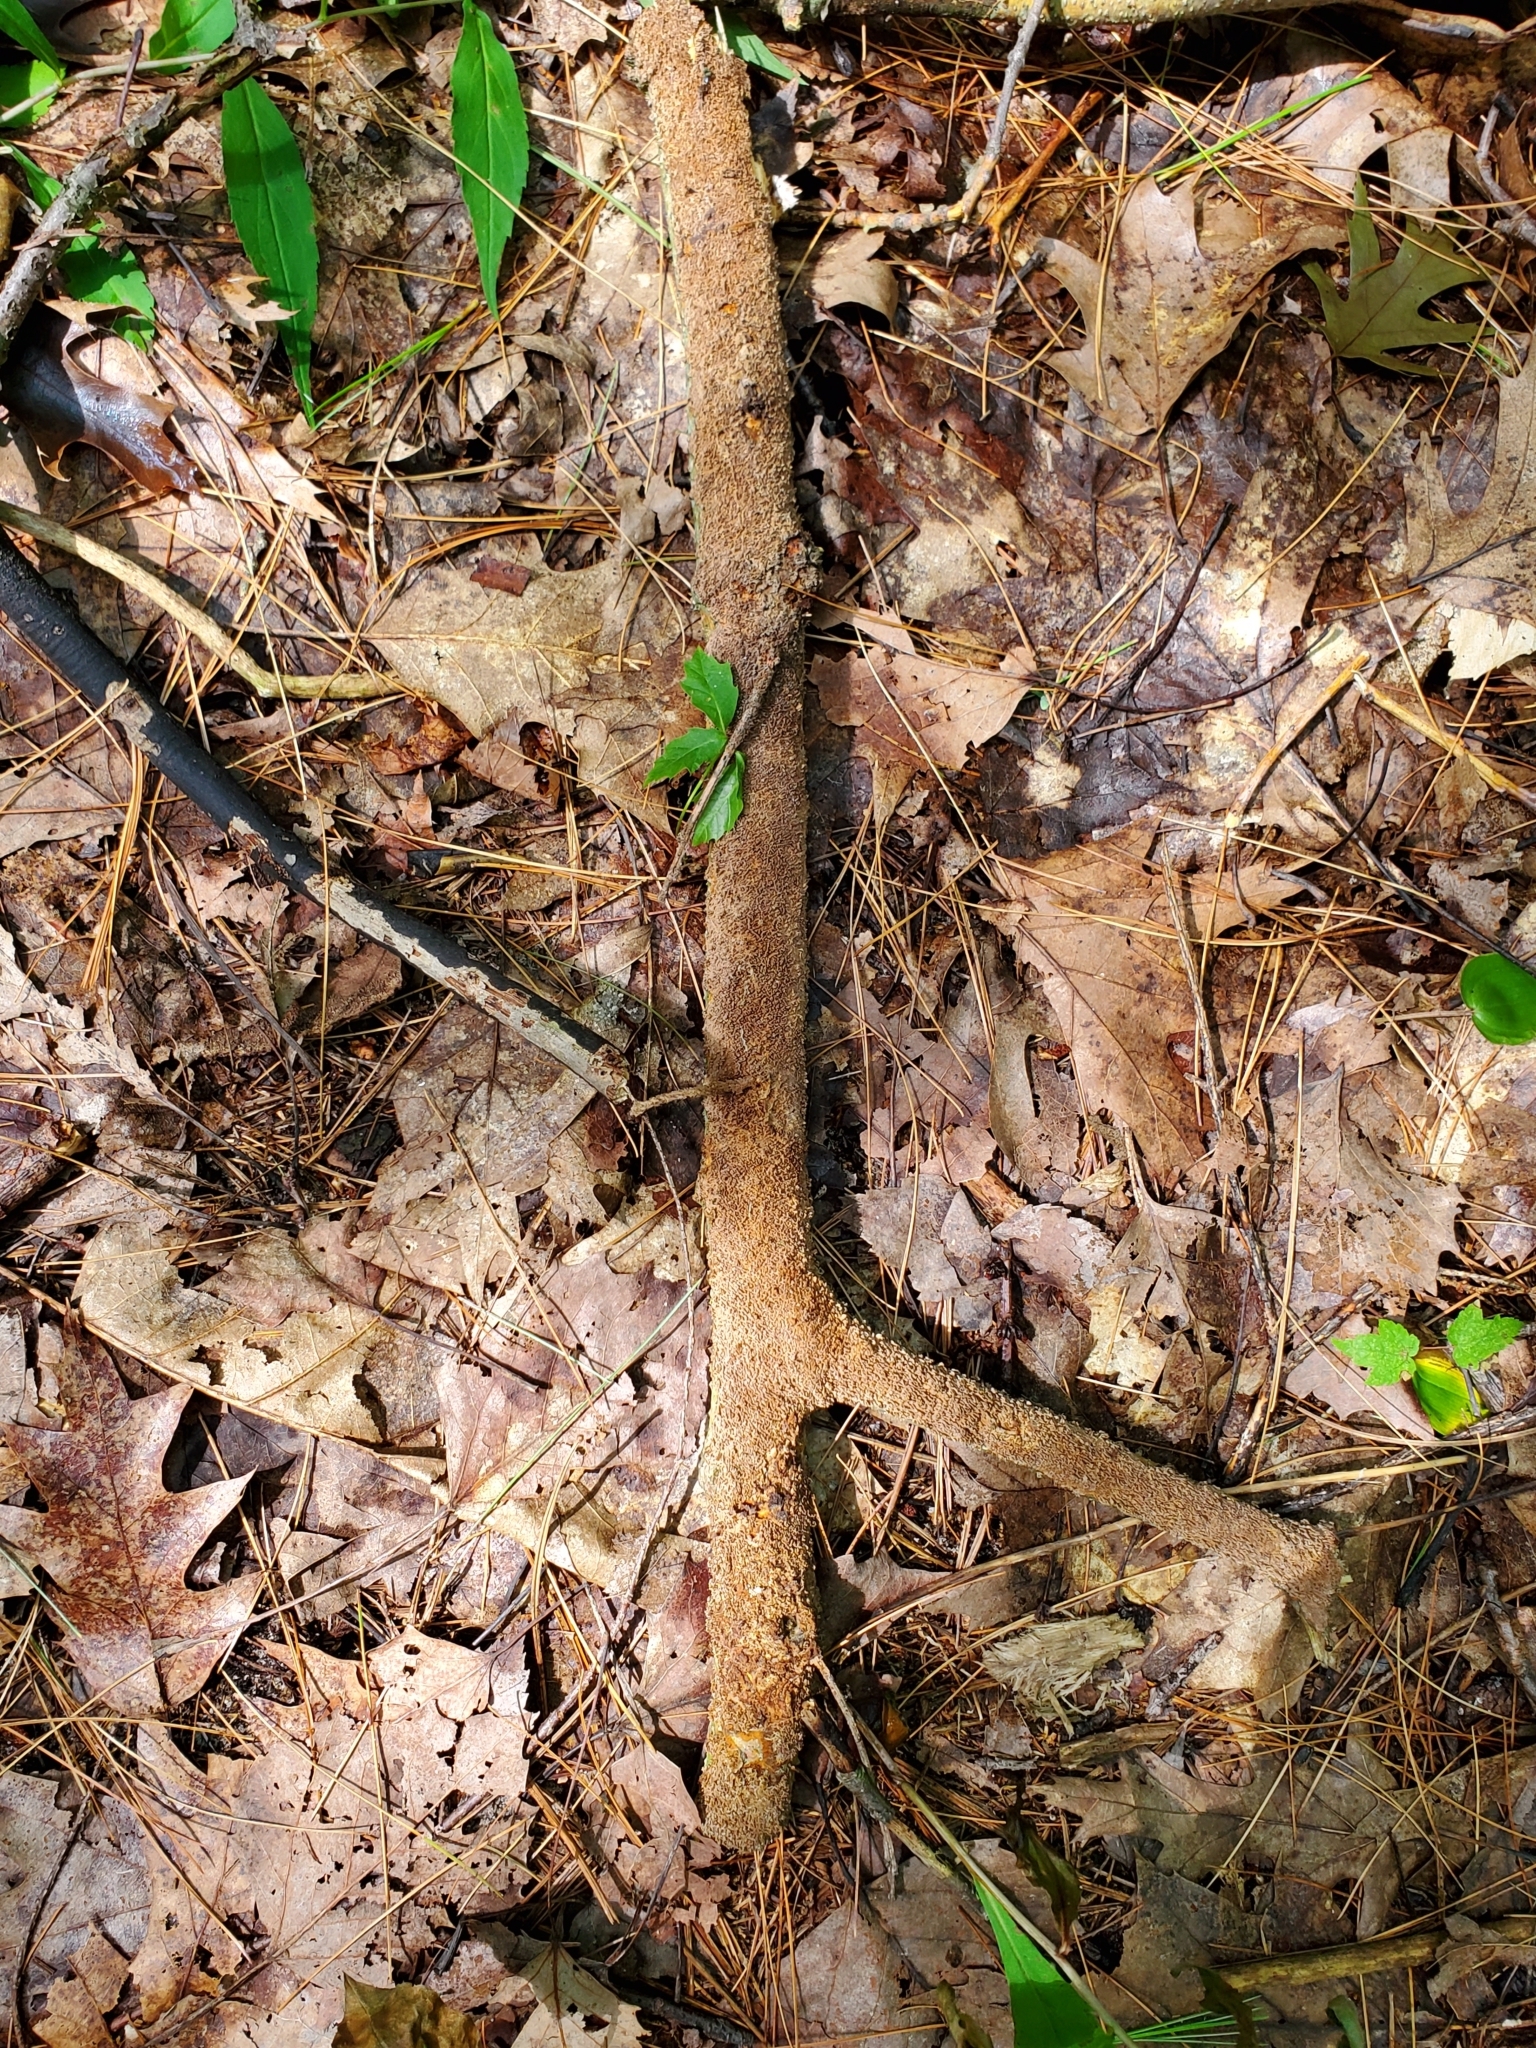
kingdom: Fungi
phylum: Basidiomycota
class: Agaricomycetes
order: Hymenochaetales
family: Hymenochaetaceae
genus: Hydnoporia
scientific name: Hydnoporia olivacea
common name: Brown-toothed crust fungus
